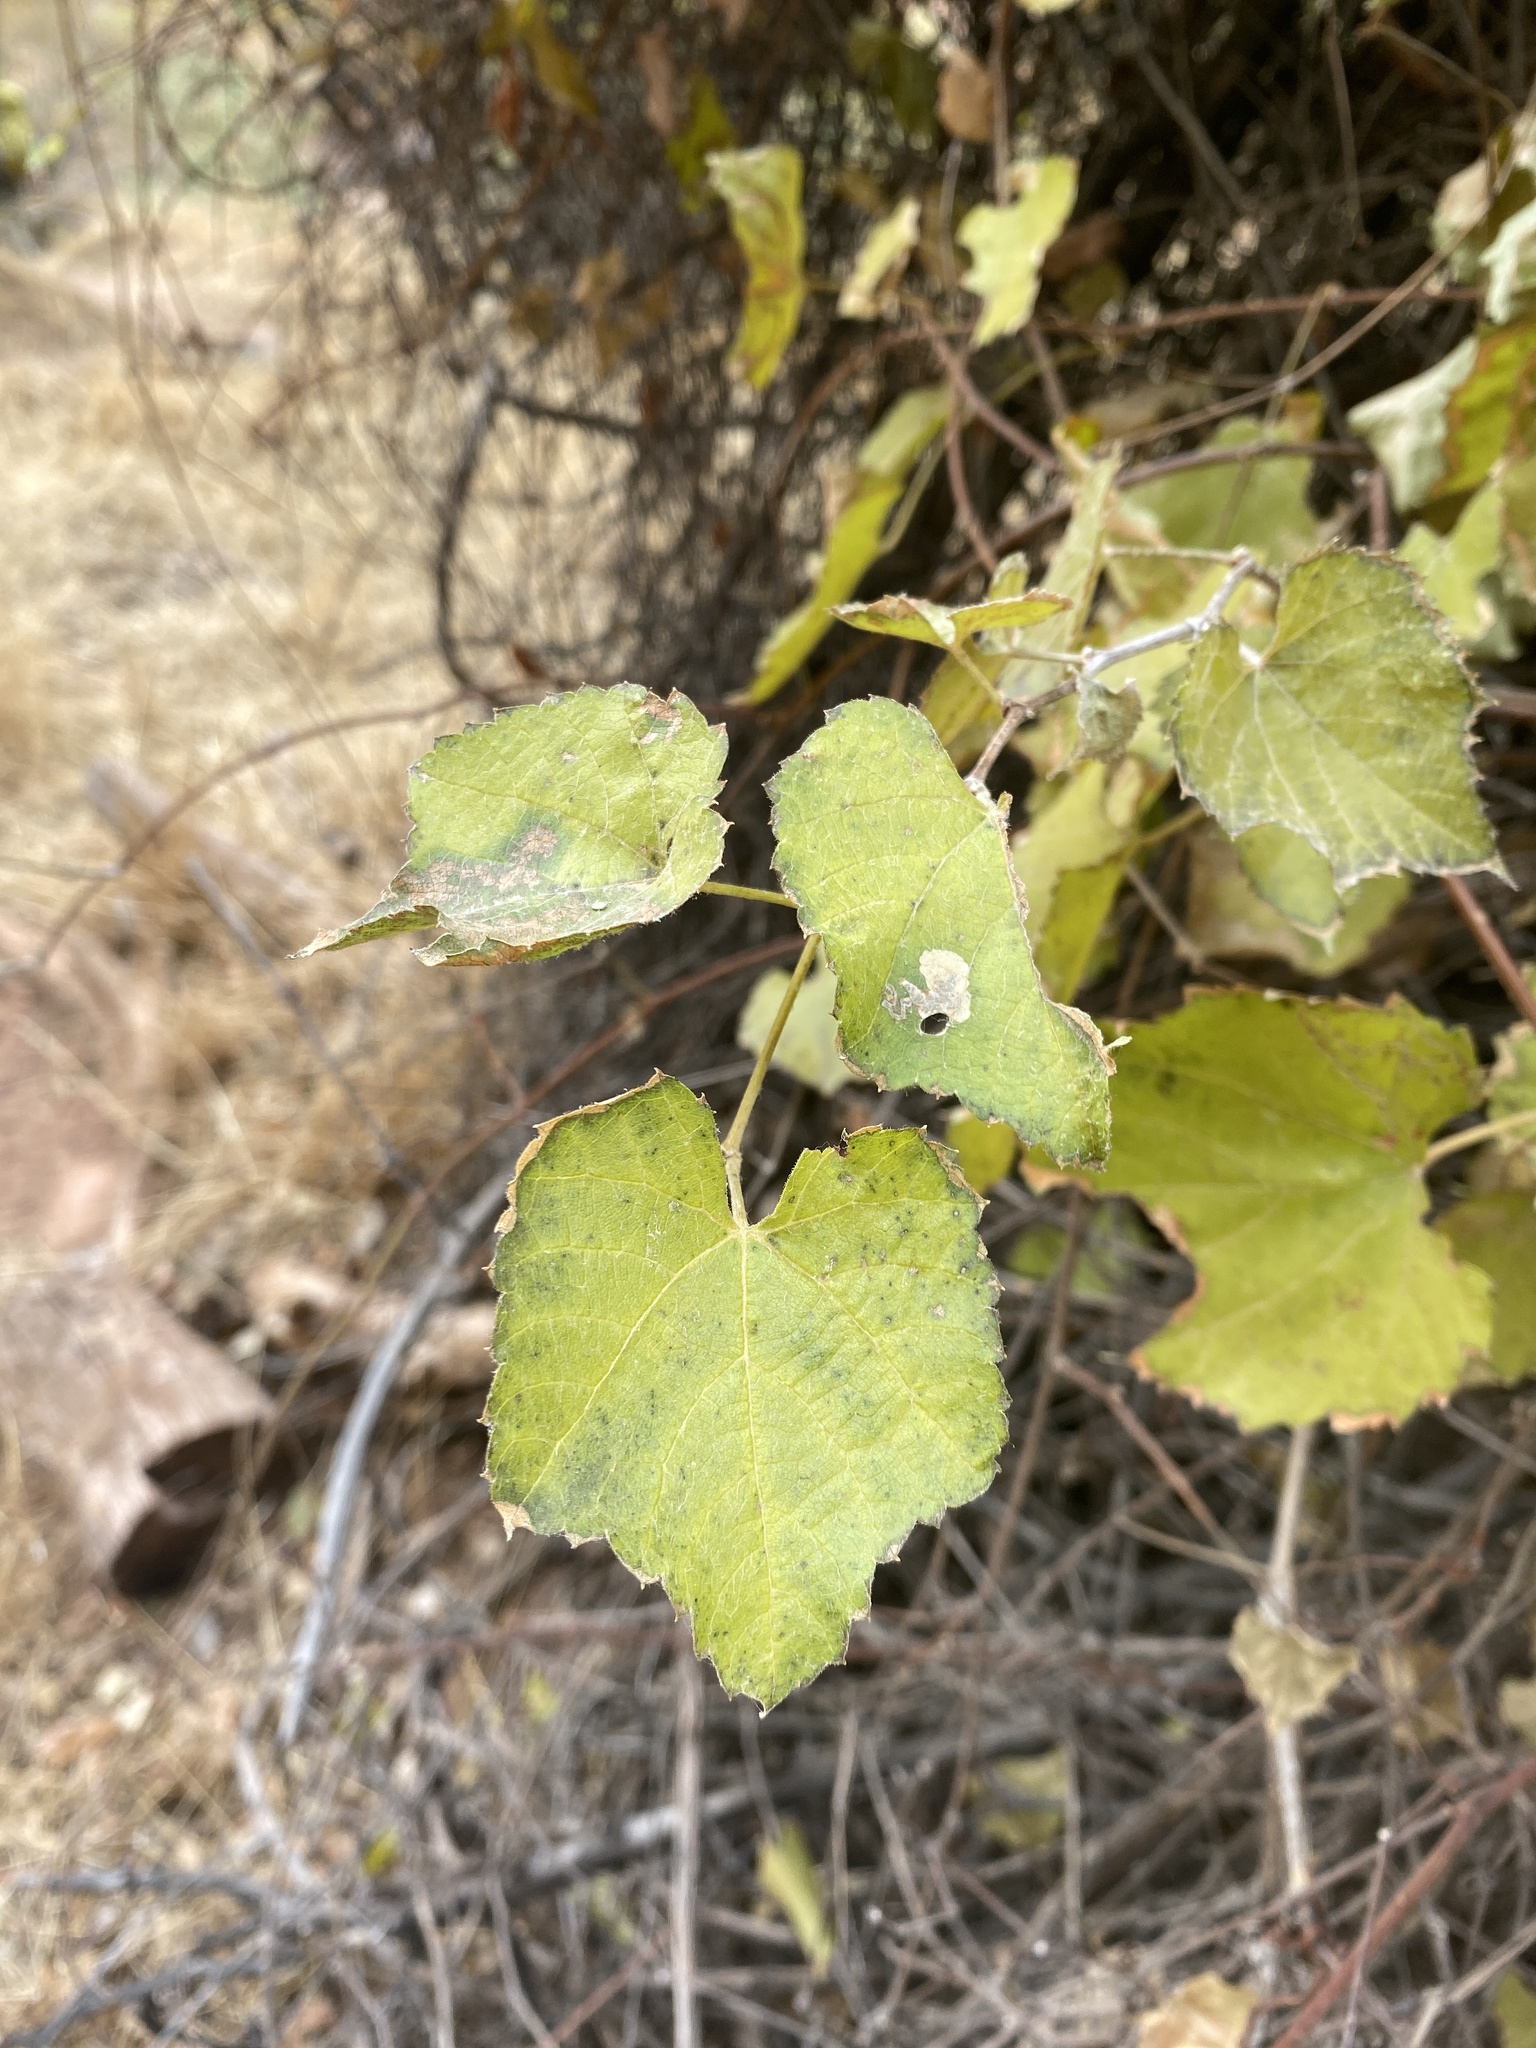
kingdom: Plantae
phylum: Tracheophyta
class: Magnoliopsida
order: Vitales
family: Vitaceae
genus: Vitis
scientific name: Vitis arizonica
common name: Canyon grape
